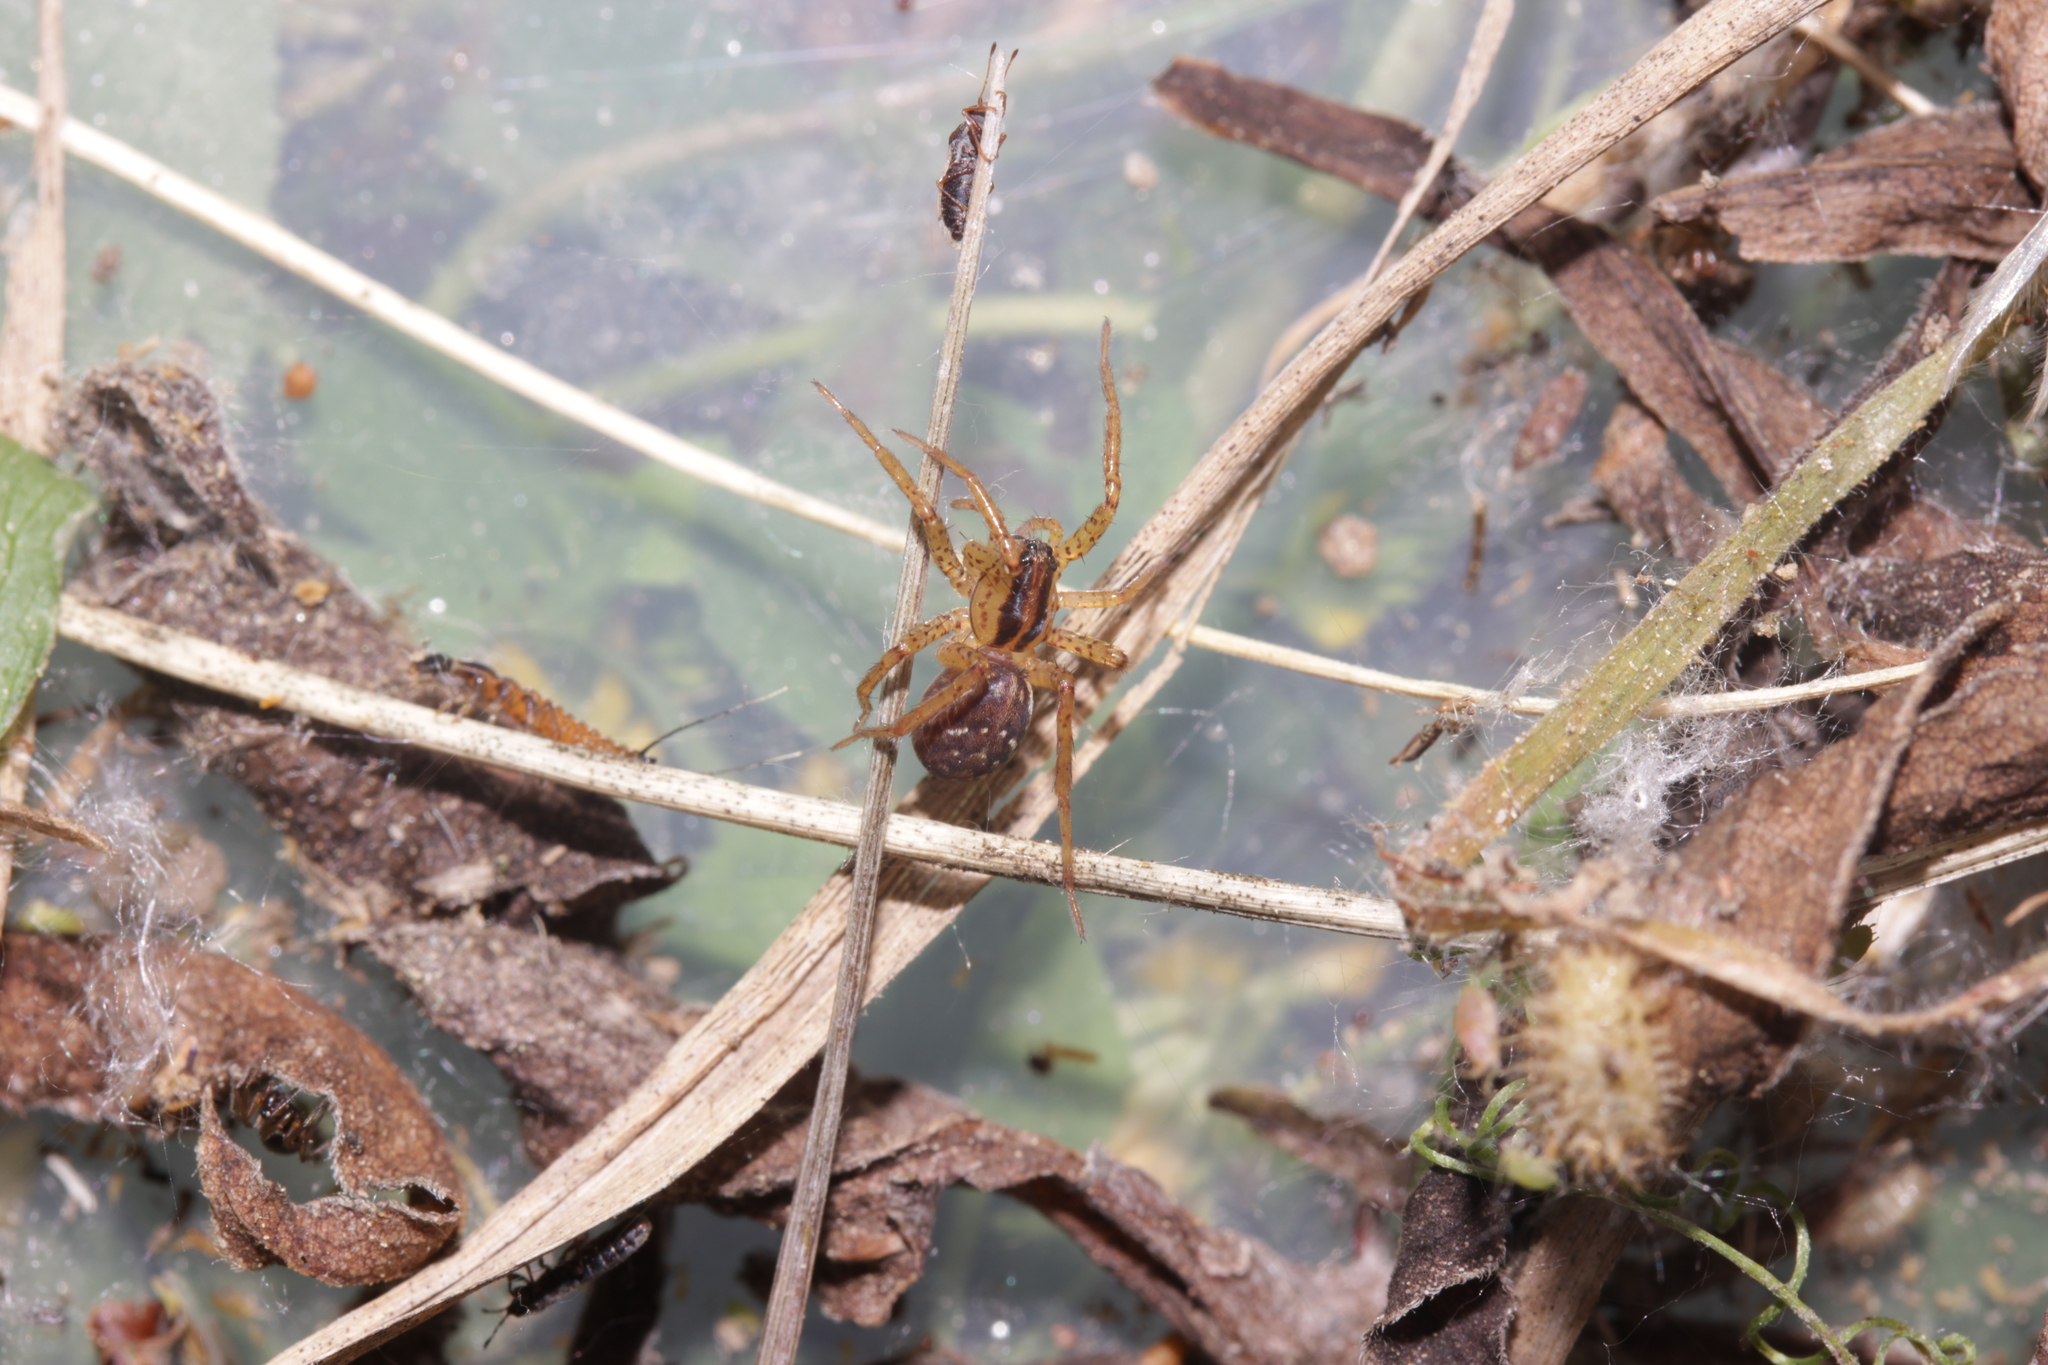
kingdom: Animalia
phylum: Arthropoda
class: Arachnida
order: Araneae
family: Lycosidae
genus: Hygrolycosa
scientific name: Hygrolycosa rubrofasciata
